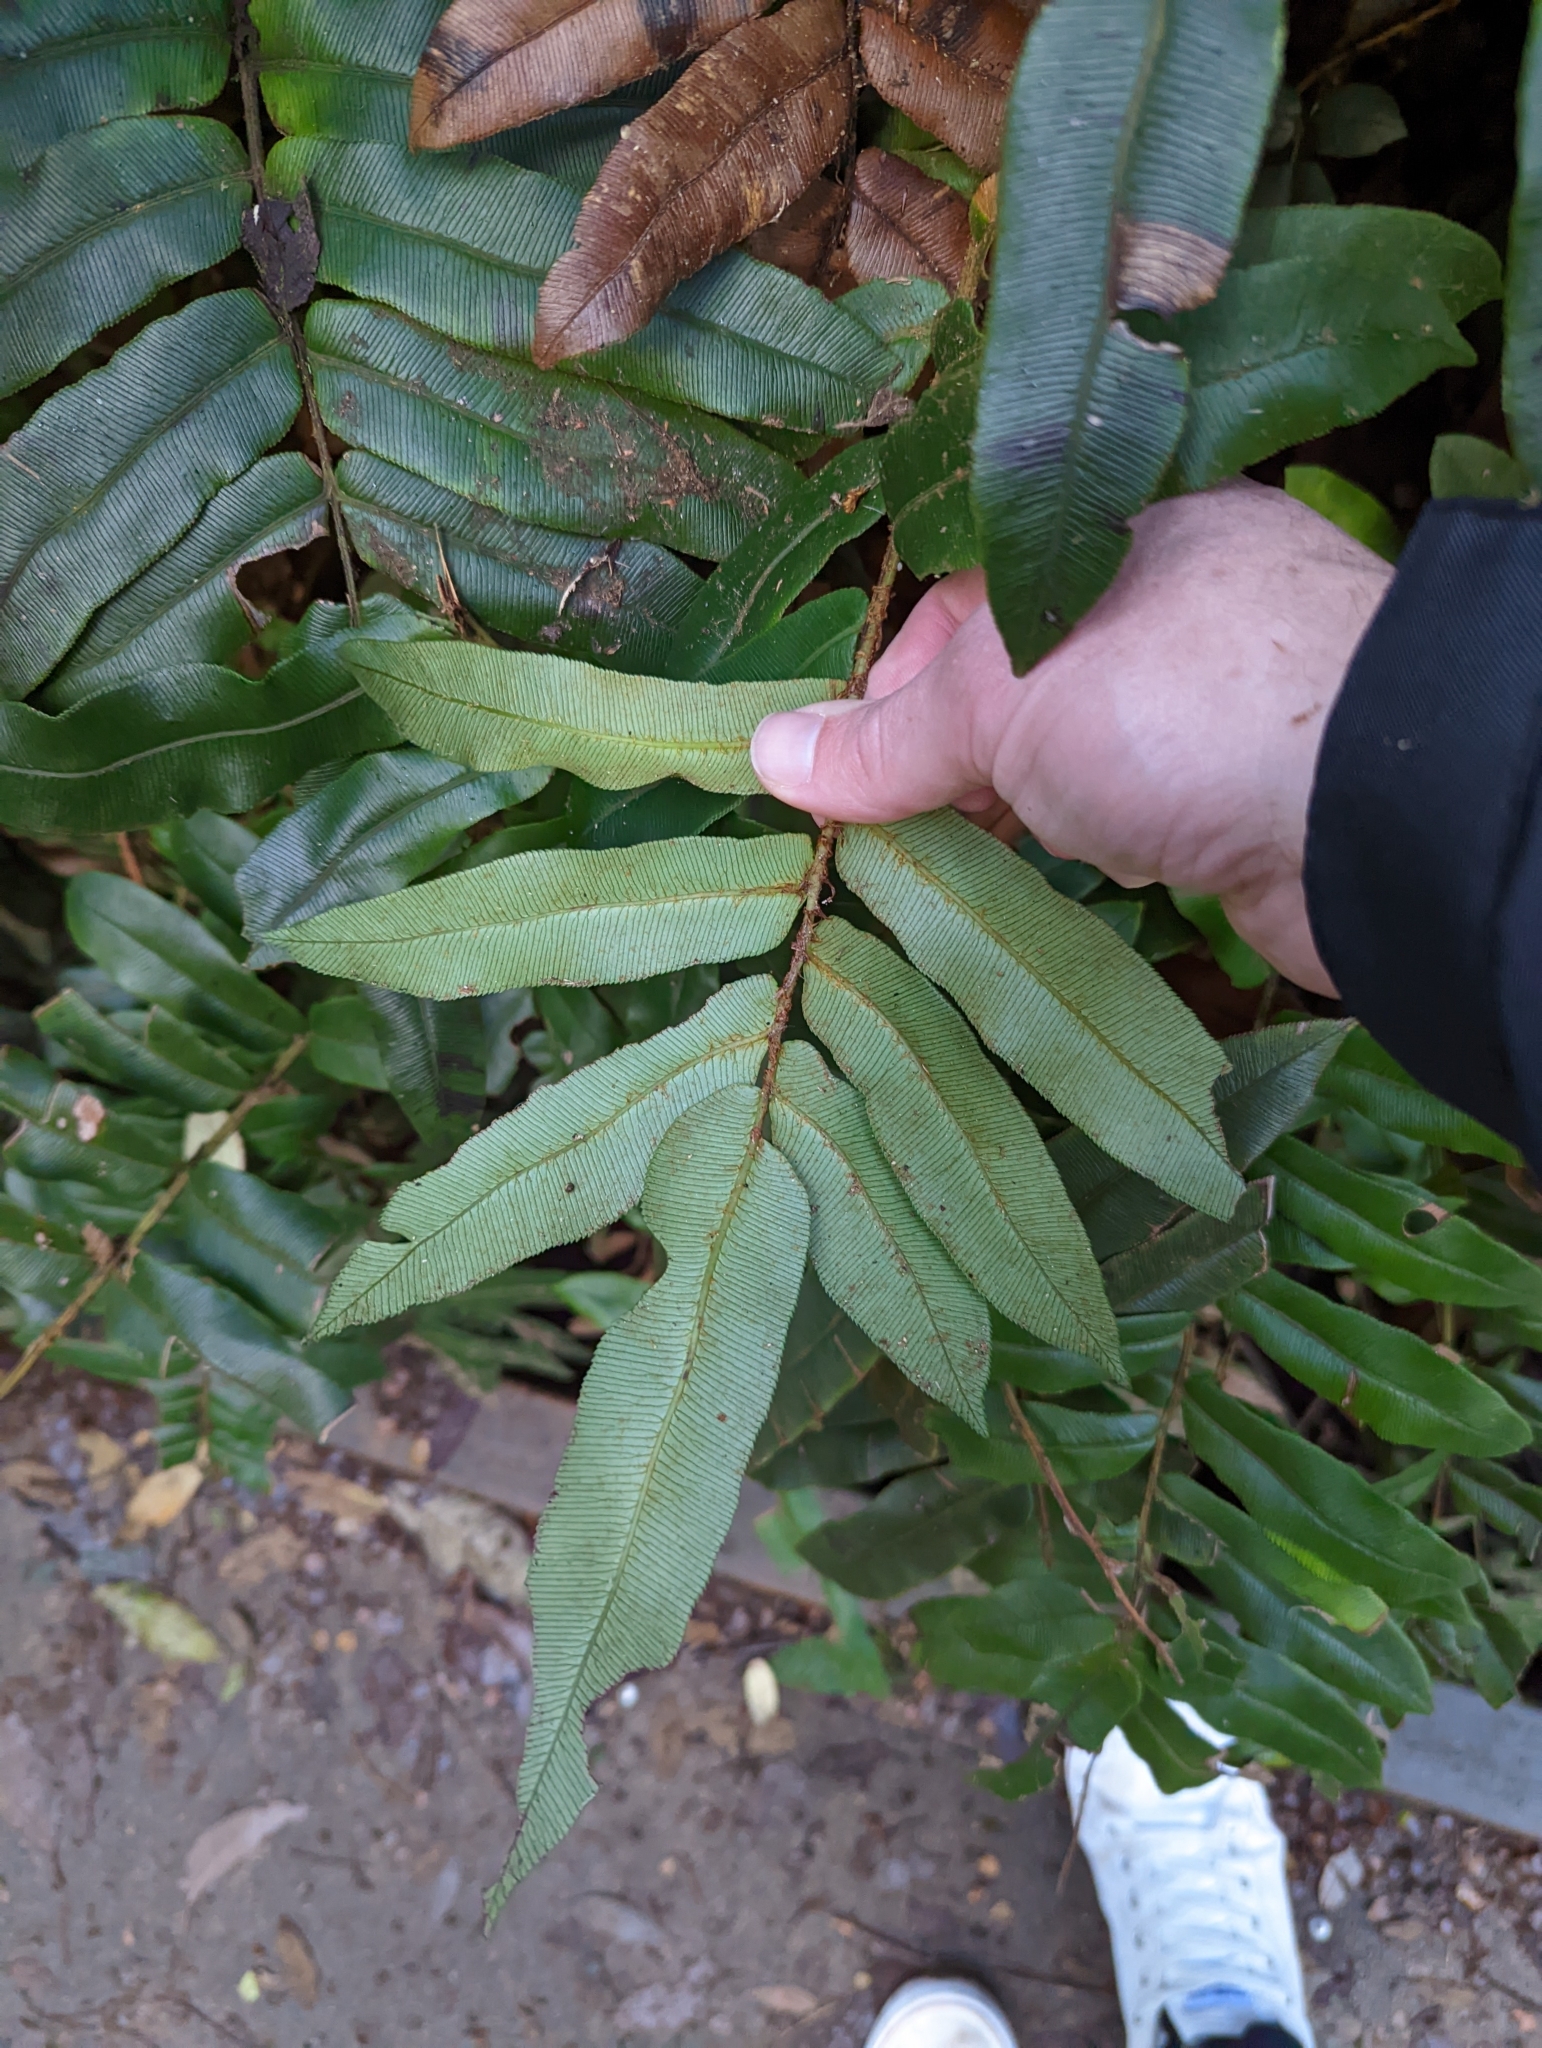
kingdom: Plantae
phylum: Tracheophyta
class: Polypodiopsida
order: Polypodiales
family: Blechnaceae
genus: Parablechnum
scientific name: Parablechnum wattsii
